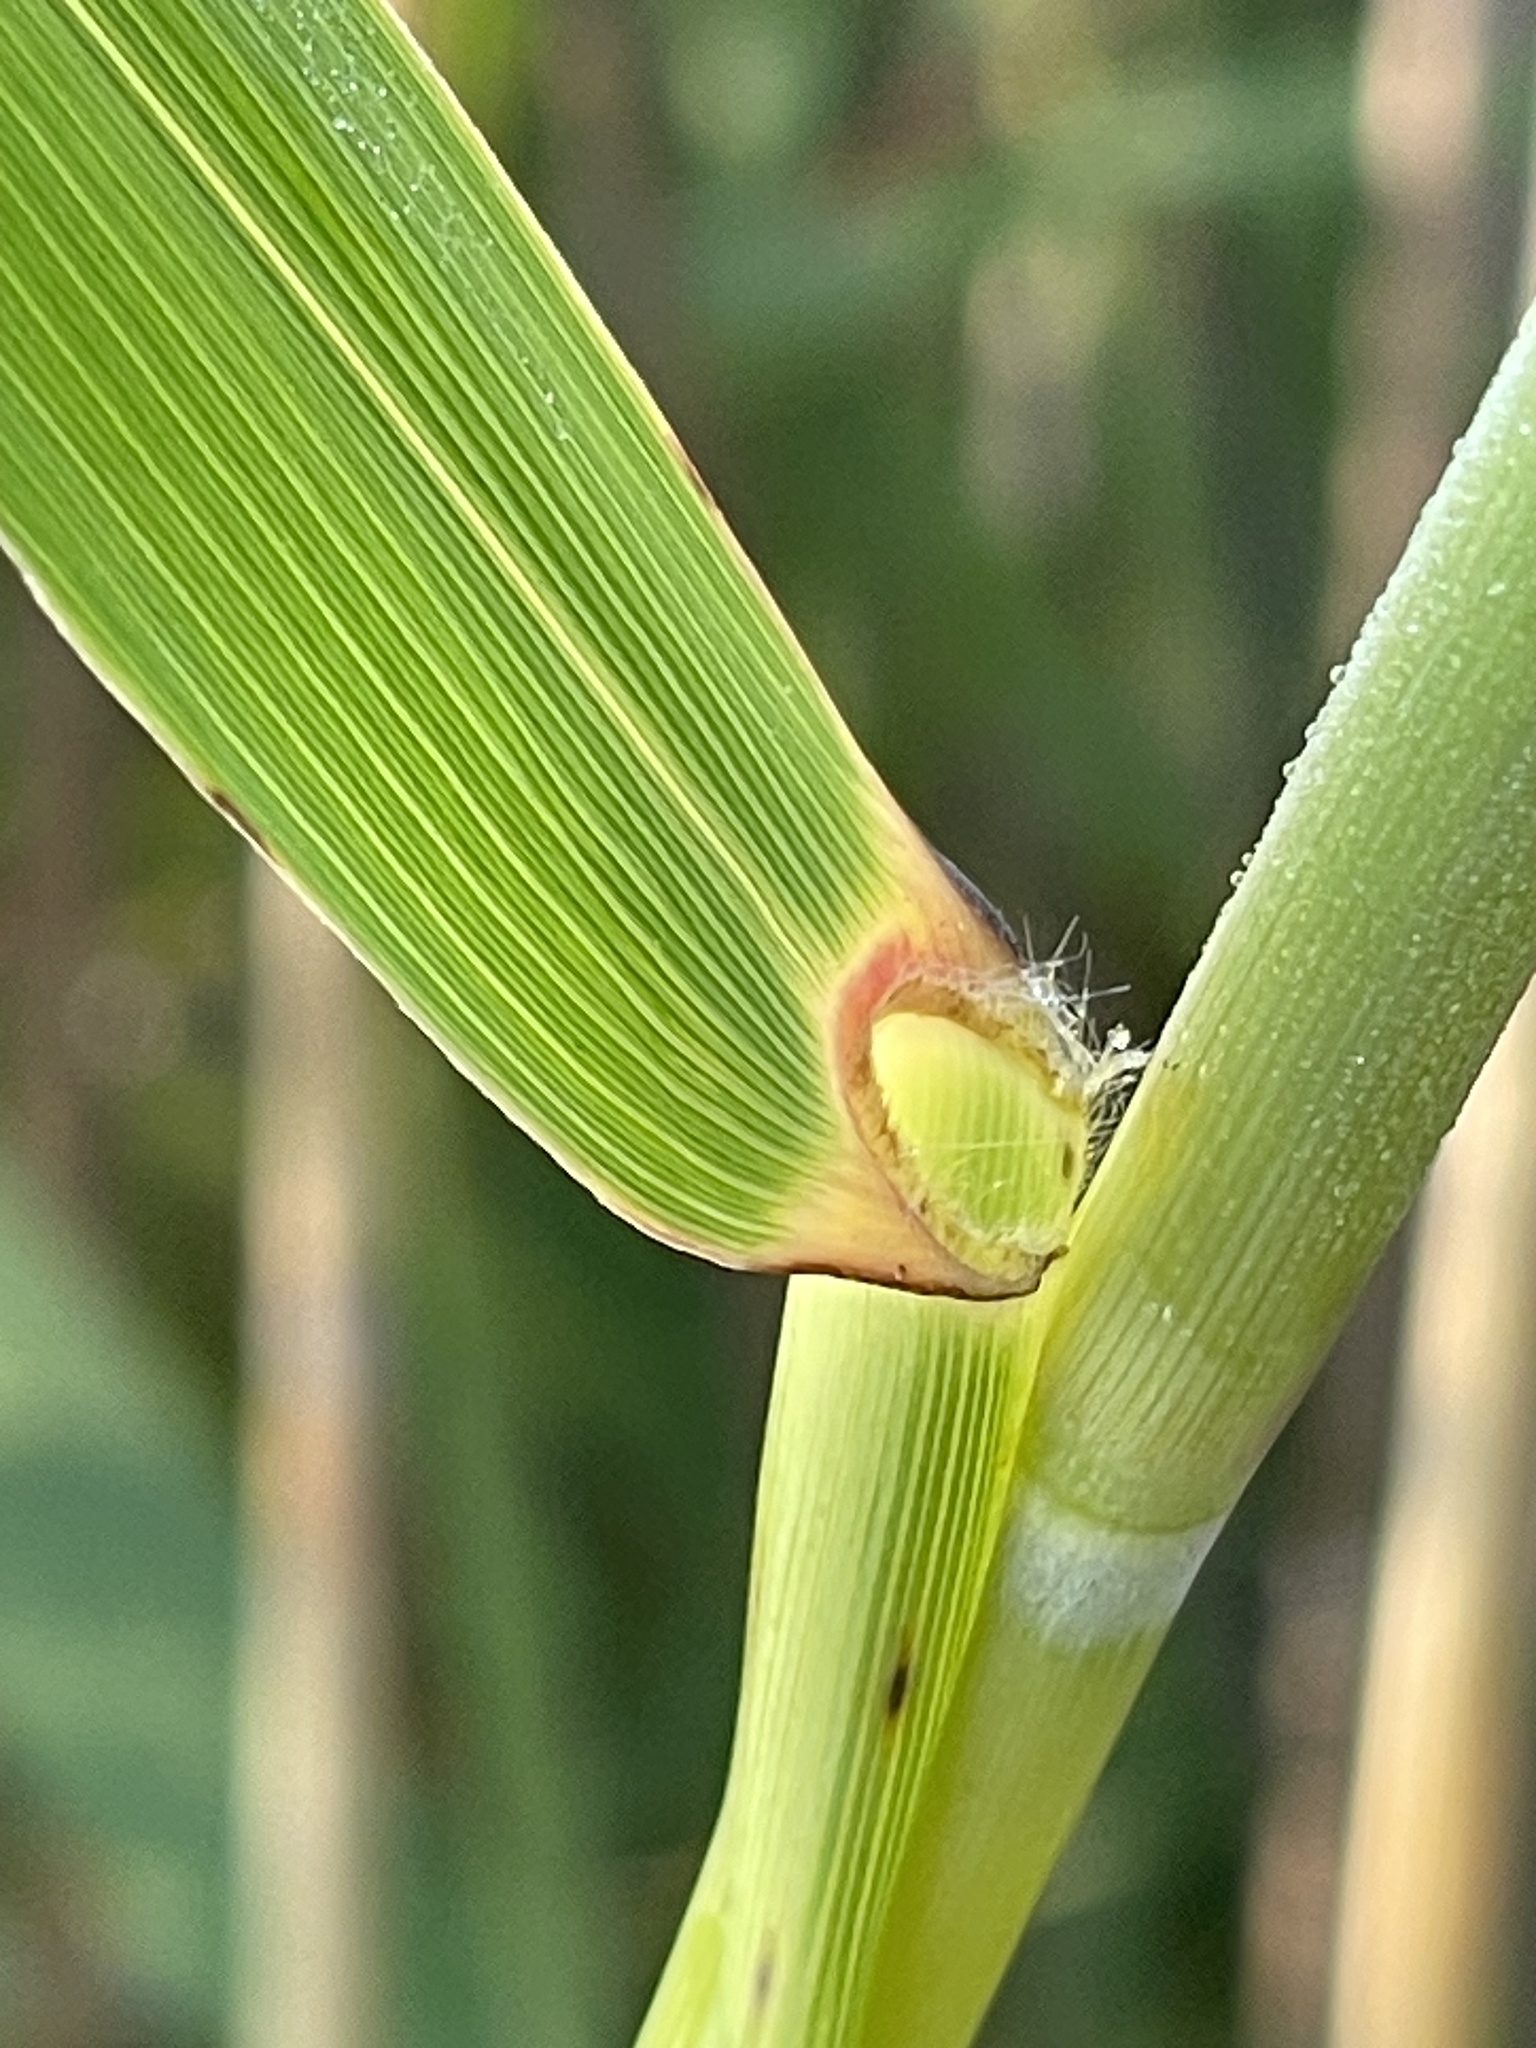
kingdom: Plantae
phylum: Tracheophyta
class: Liliopsida
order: Poales
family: Poaceae
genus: Phragmites
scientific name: Phragmites australis
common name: Common reed
